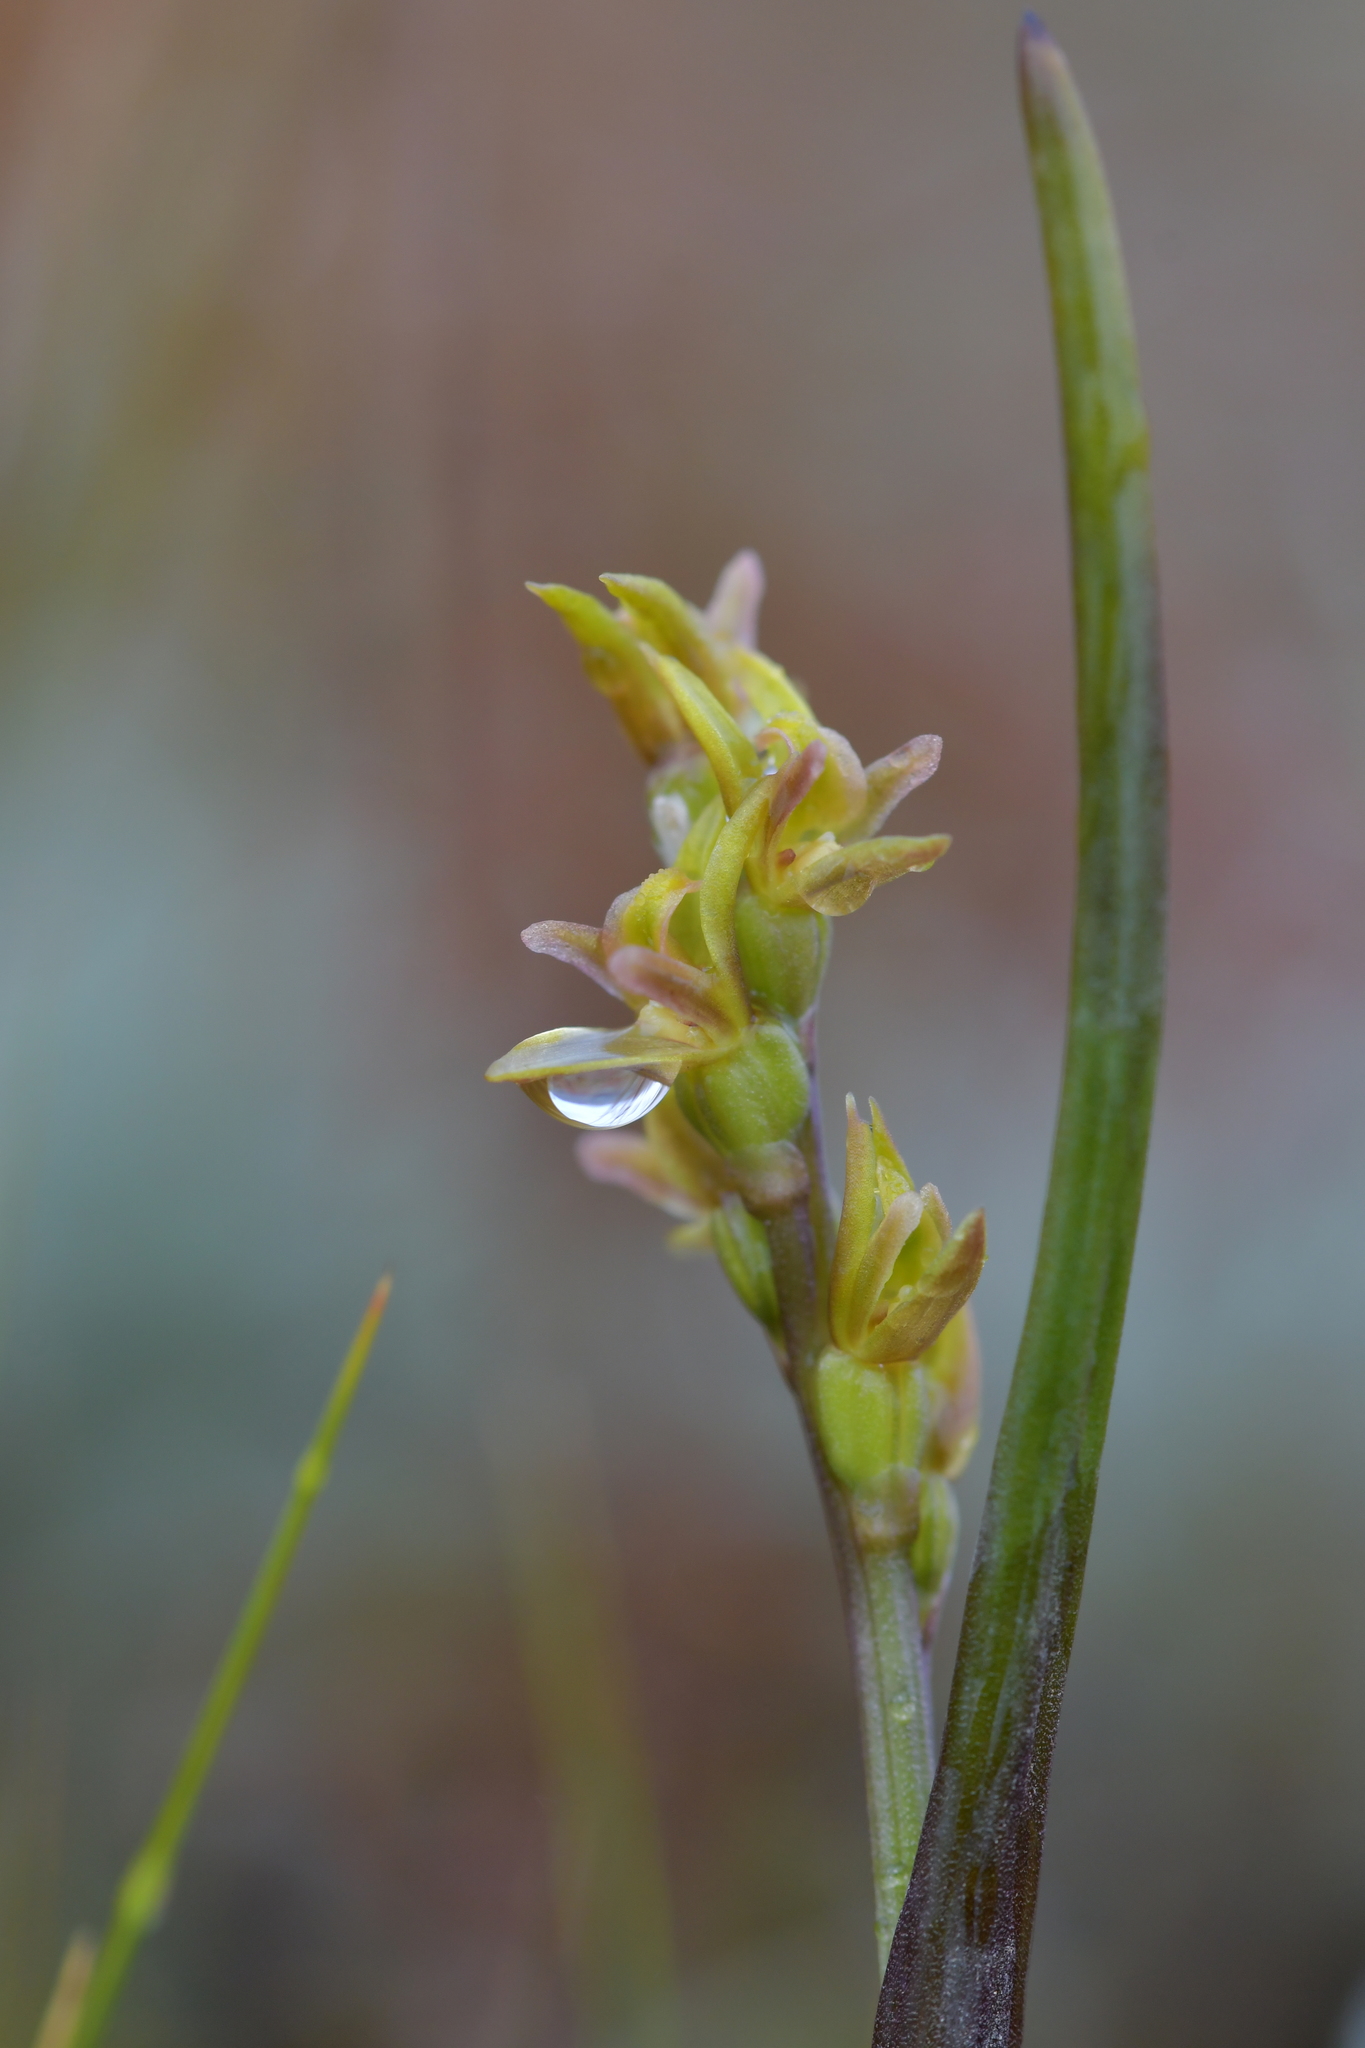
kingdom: Plantae
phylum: Tracheophyta
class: Liliopsida
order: Asparagales
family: Orchidaceae
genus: Prasophyllum
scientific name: Prasophyllum colensoi
